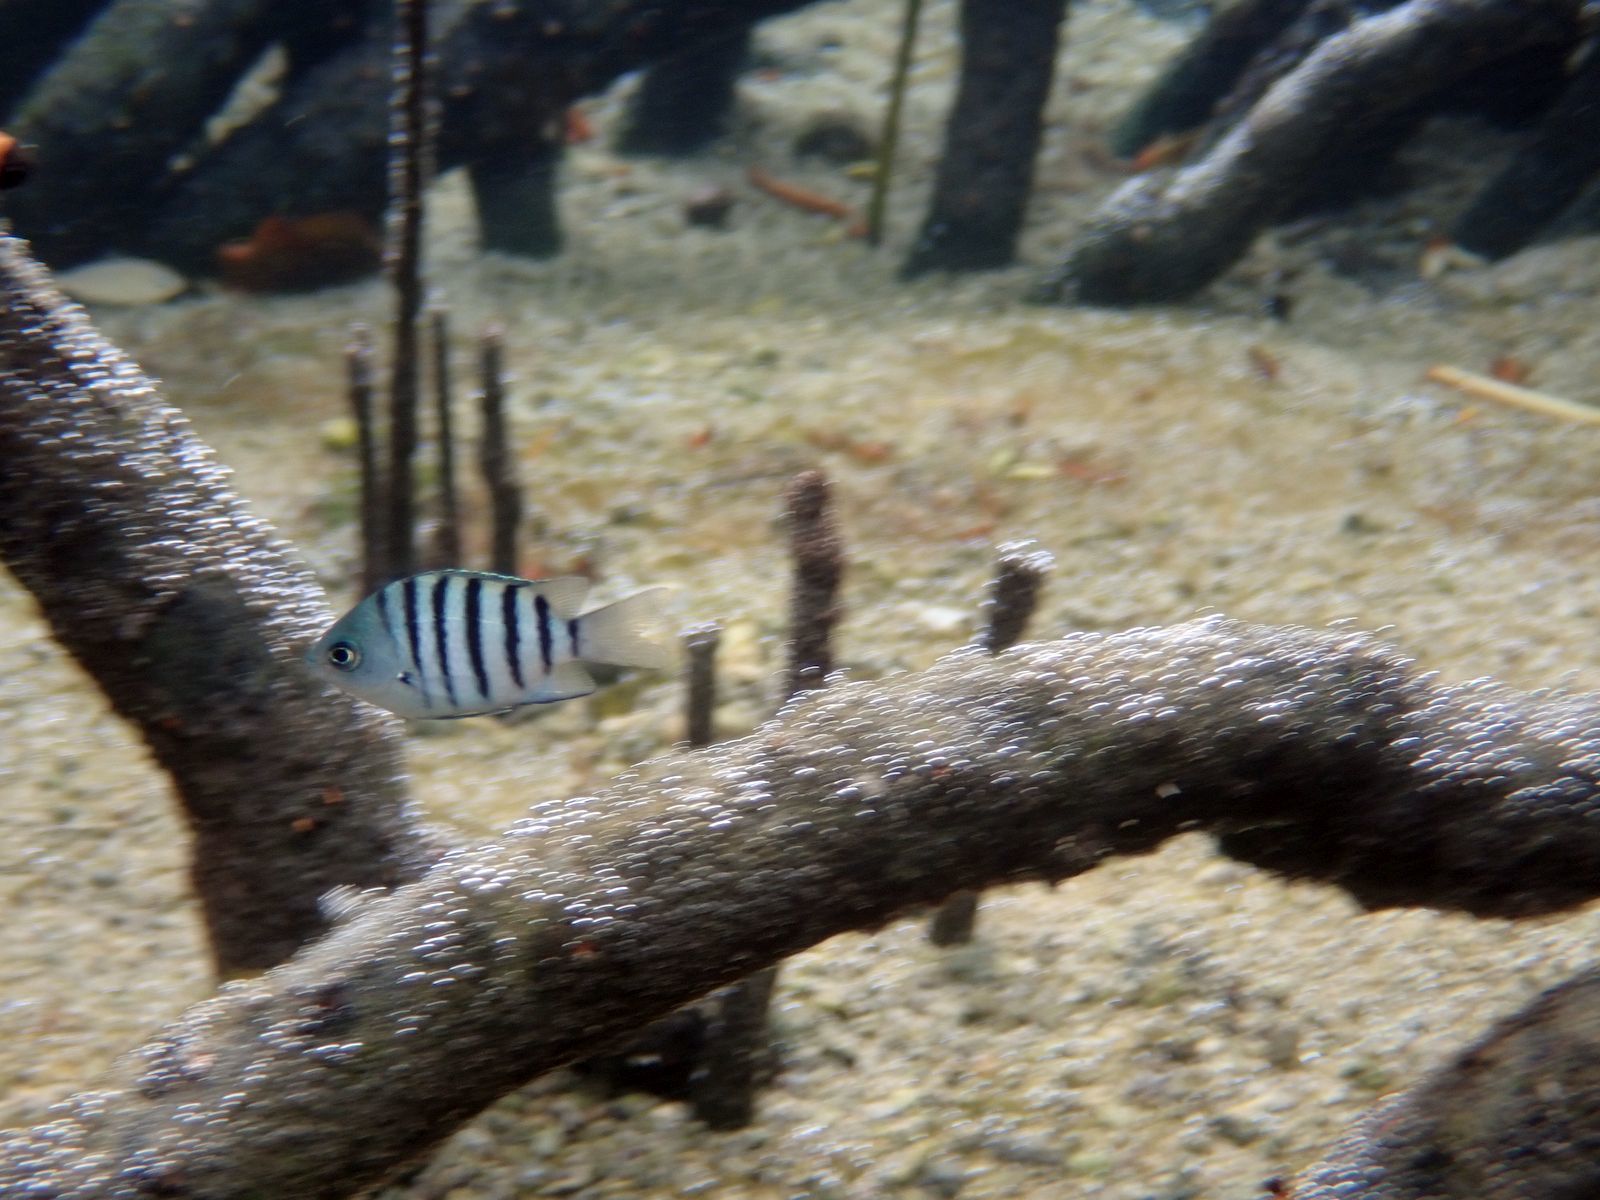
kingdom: Animalia
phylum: Chordata
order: Perciformes
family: Pomacentridae
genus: Abudefduf
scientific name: Abudefduf bengalensis
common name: Bengal sergeant
